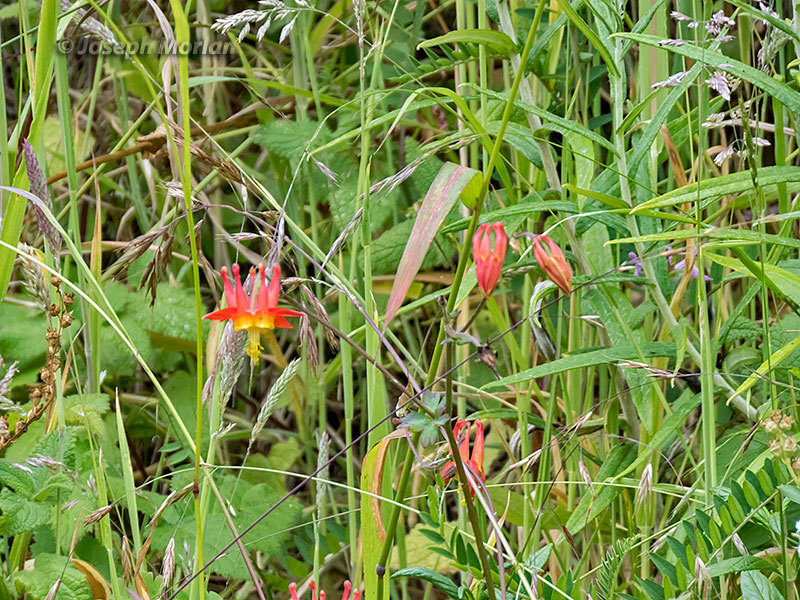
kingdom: Plantae
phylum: Tracheophyta
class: Magnoliopsida
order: Ranunculales
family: Ranunculaceae
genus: Aquilegia
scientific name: Aquilegia formosa
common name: Sitka columbine
